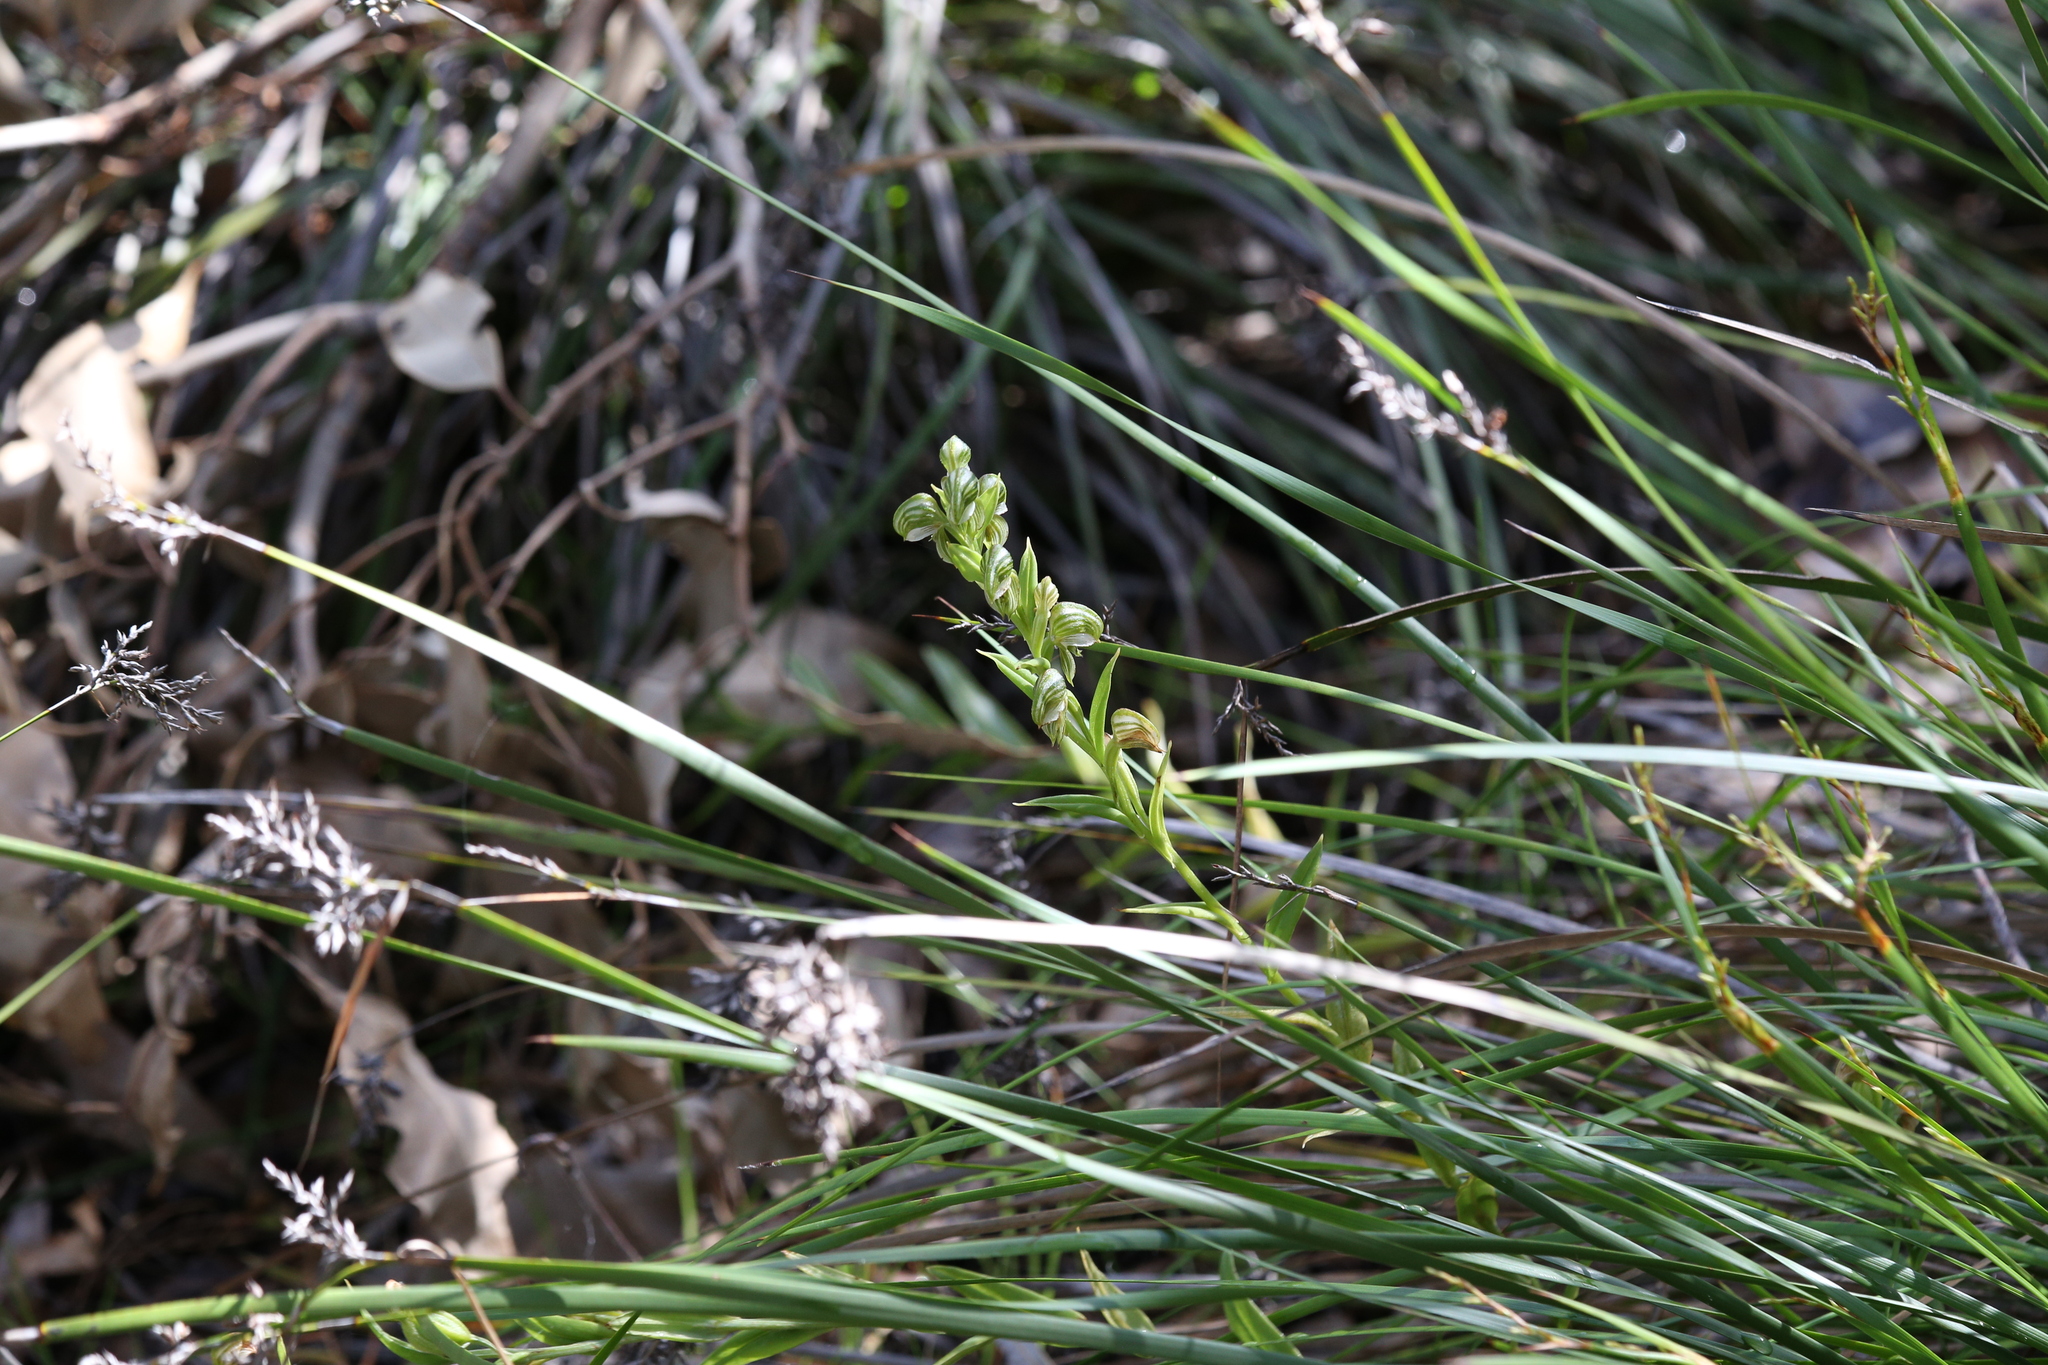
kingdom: Plantae
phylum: Tracheophyta
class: Liliopsida
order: Asparagales
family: Orchidaceae
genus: Pterostylis
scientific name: Pterostylis vittata
